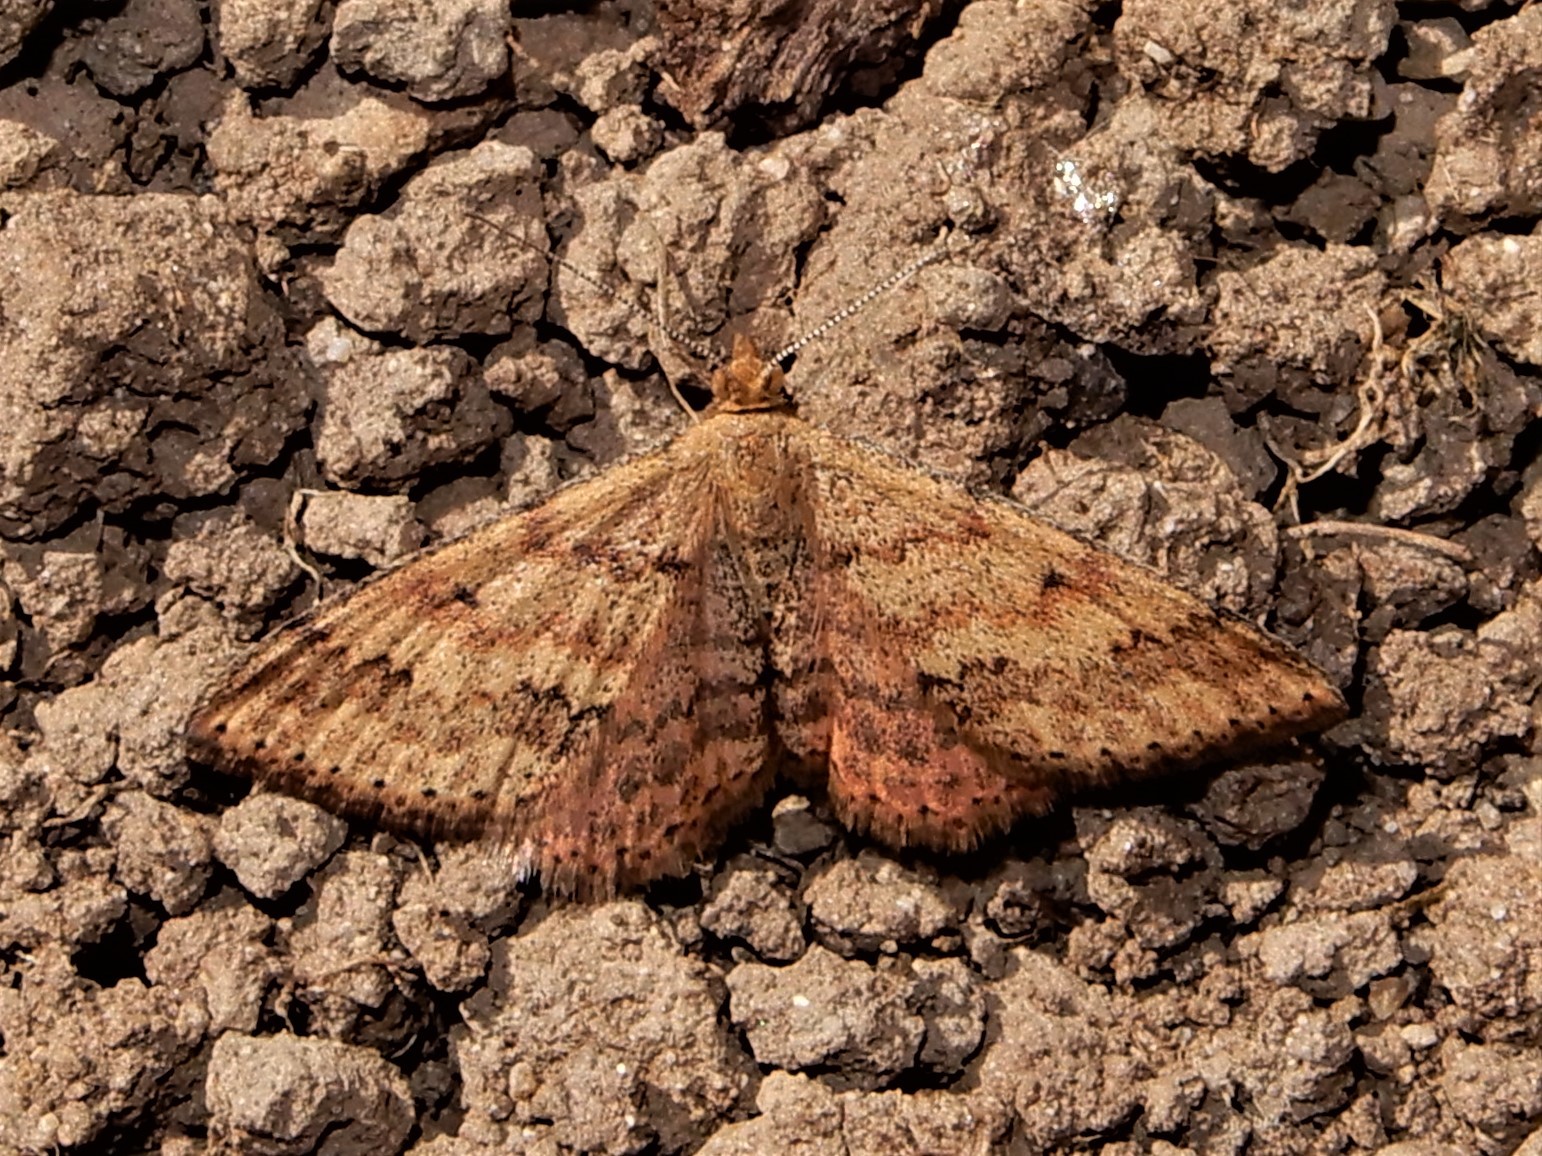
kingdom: Animalia
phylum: Arthropoda
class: Insecta
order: Lepidoptera
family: Geometridae
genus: Scopula
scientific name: Scopula rubraria
